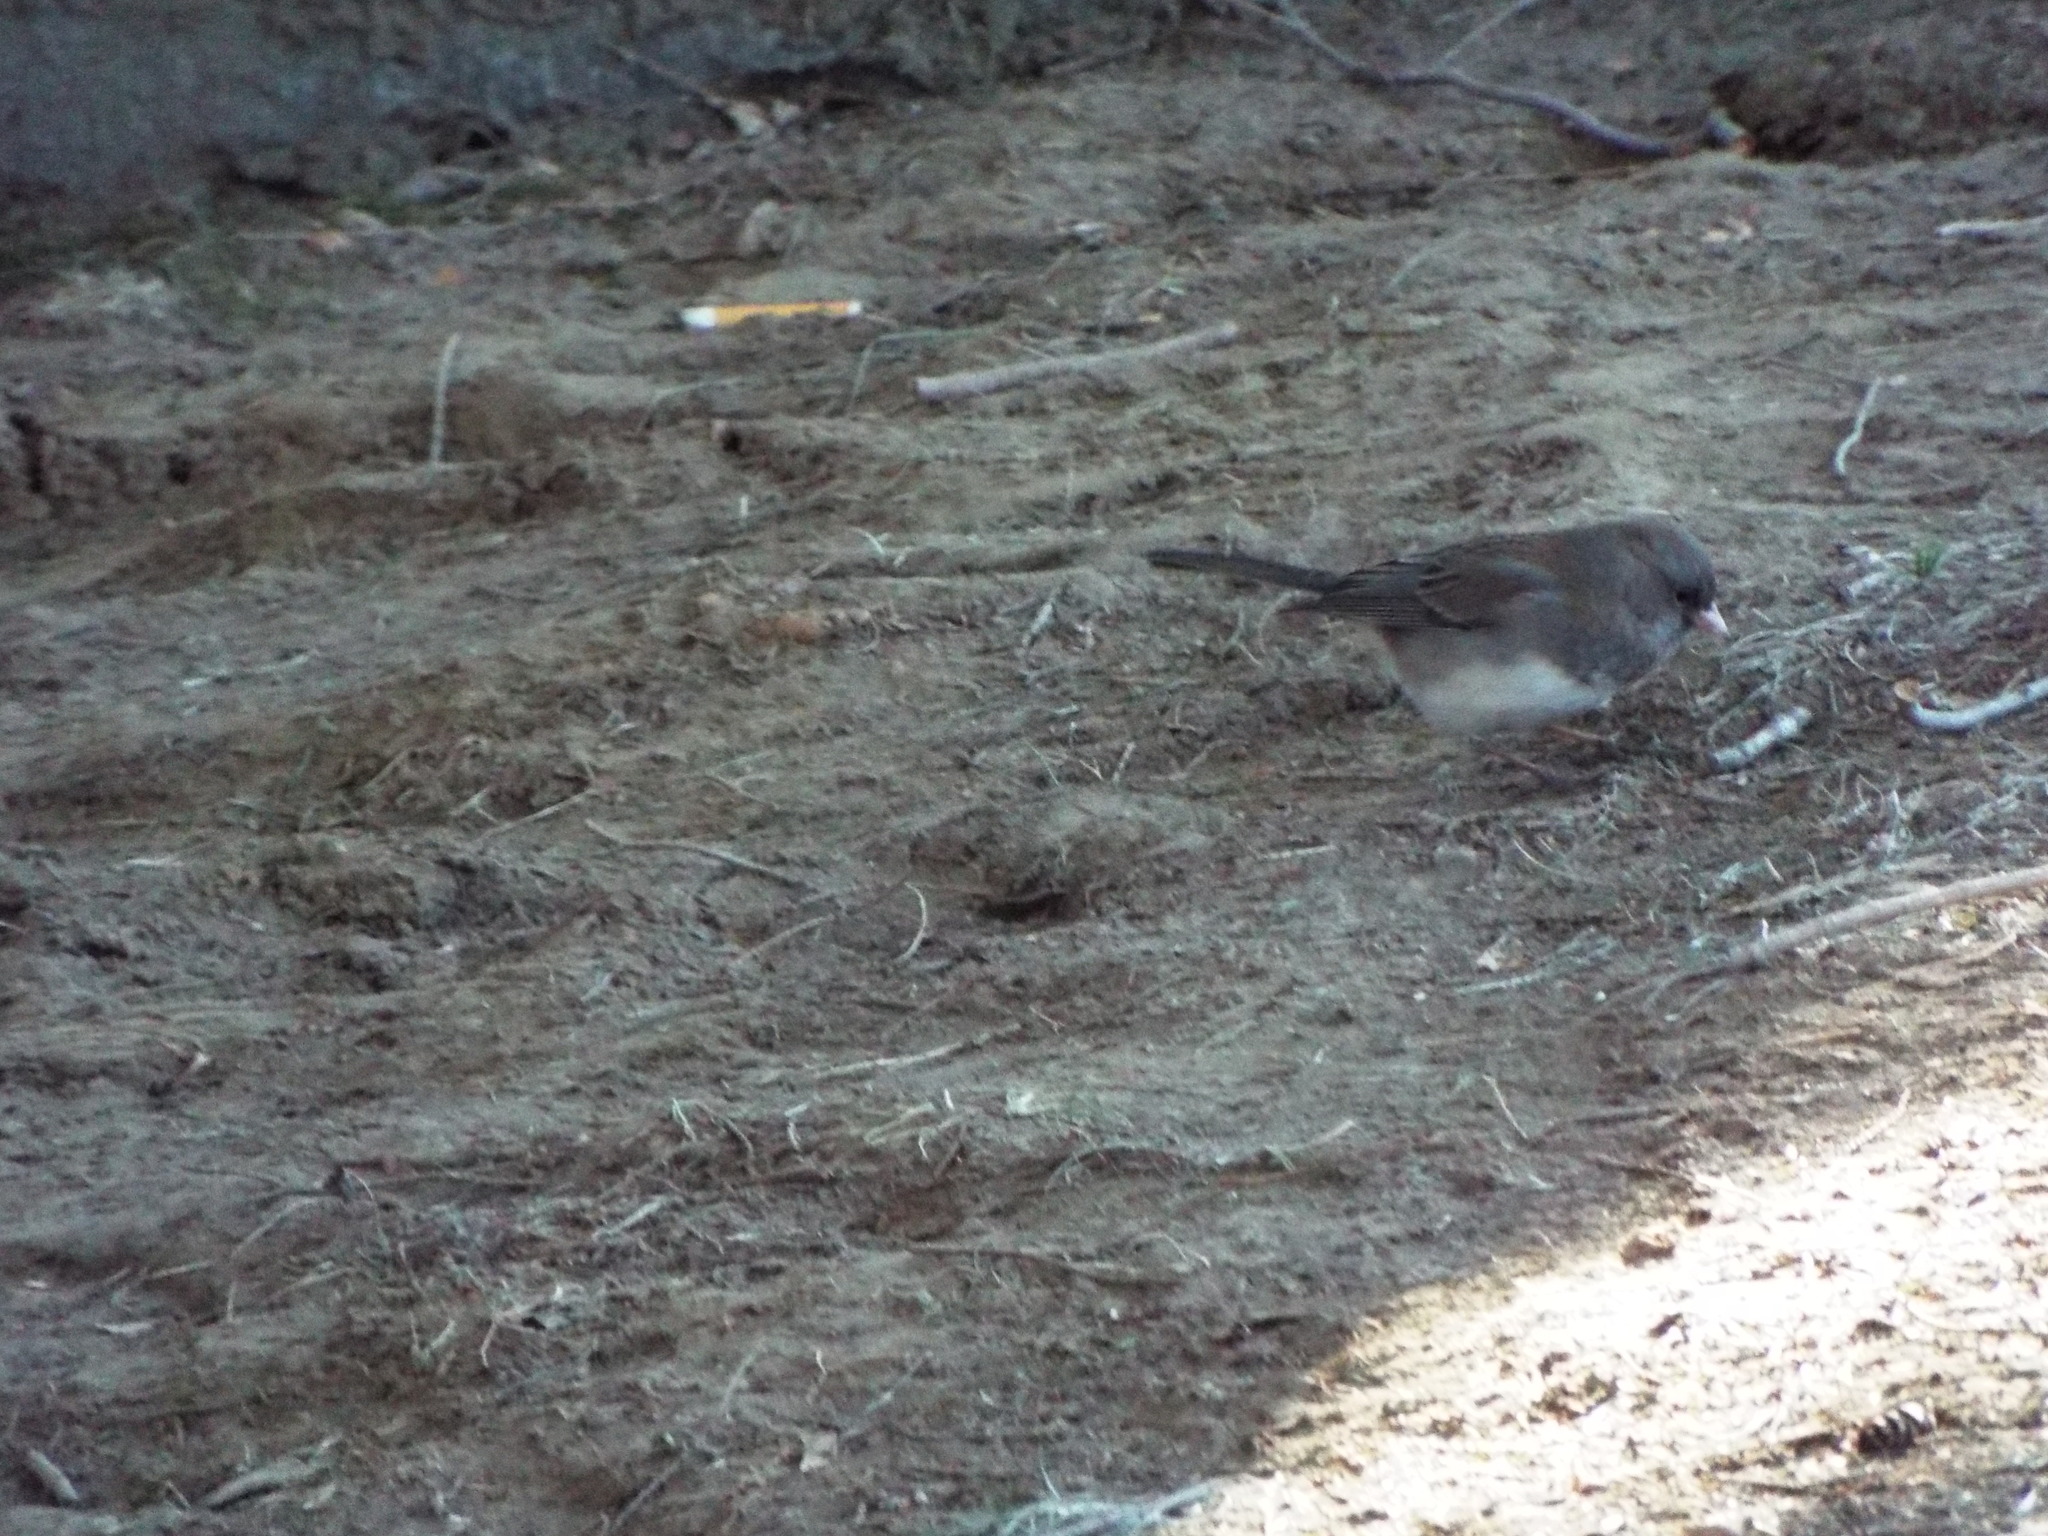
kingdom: Animalia
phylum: Chordata
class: Aves
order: Passeriformes
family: Passerellidae
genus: Junco
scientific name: Junco hyemalis
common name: Dark-eyed junco
